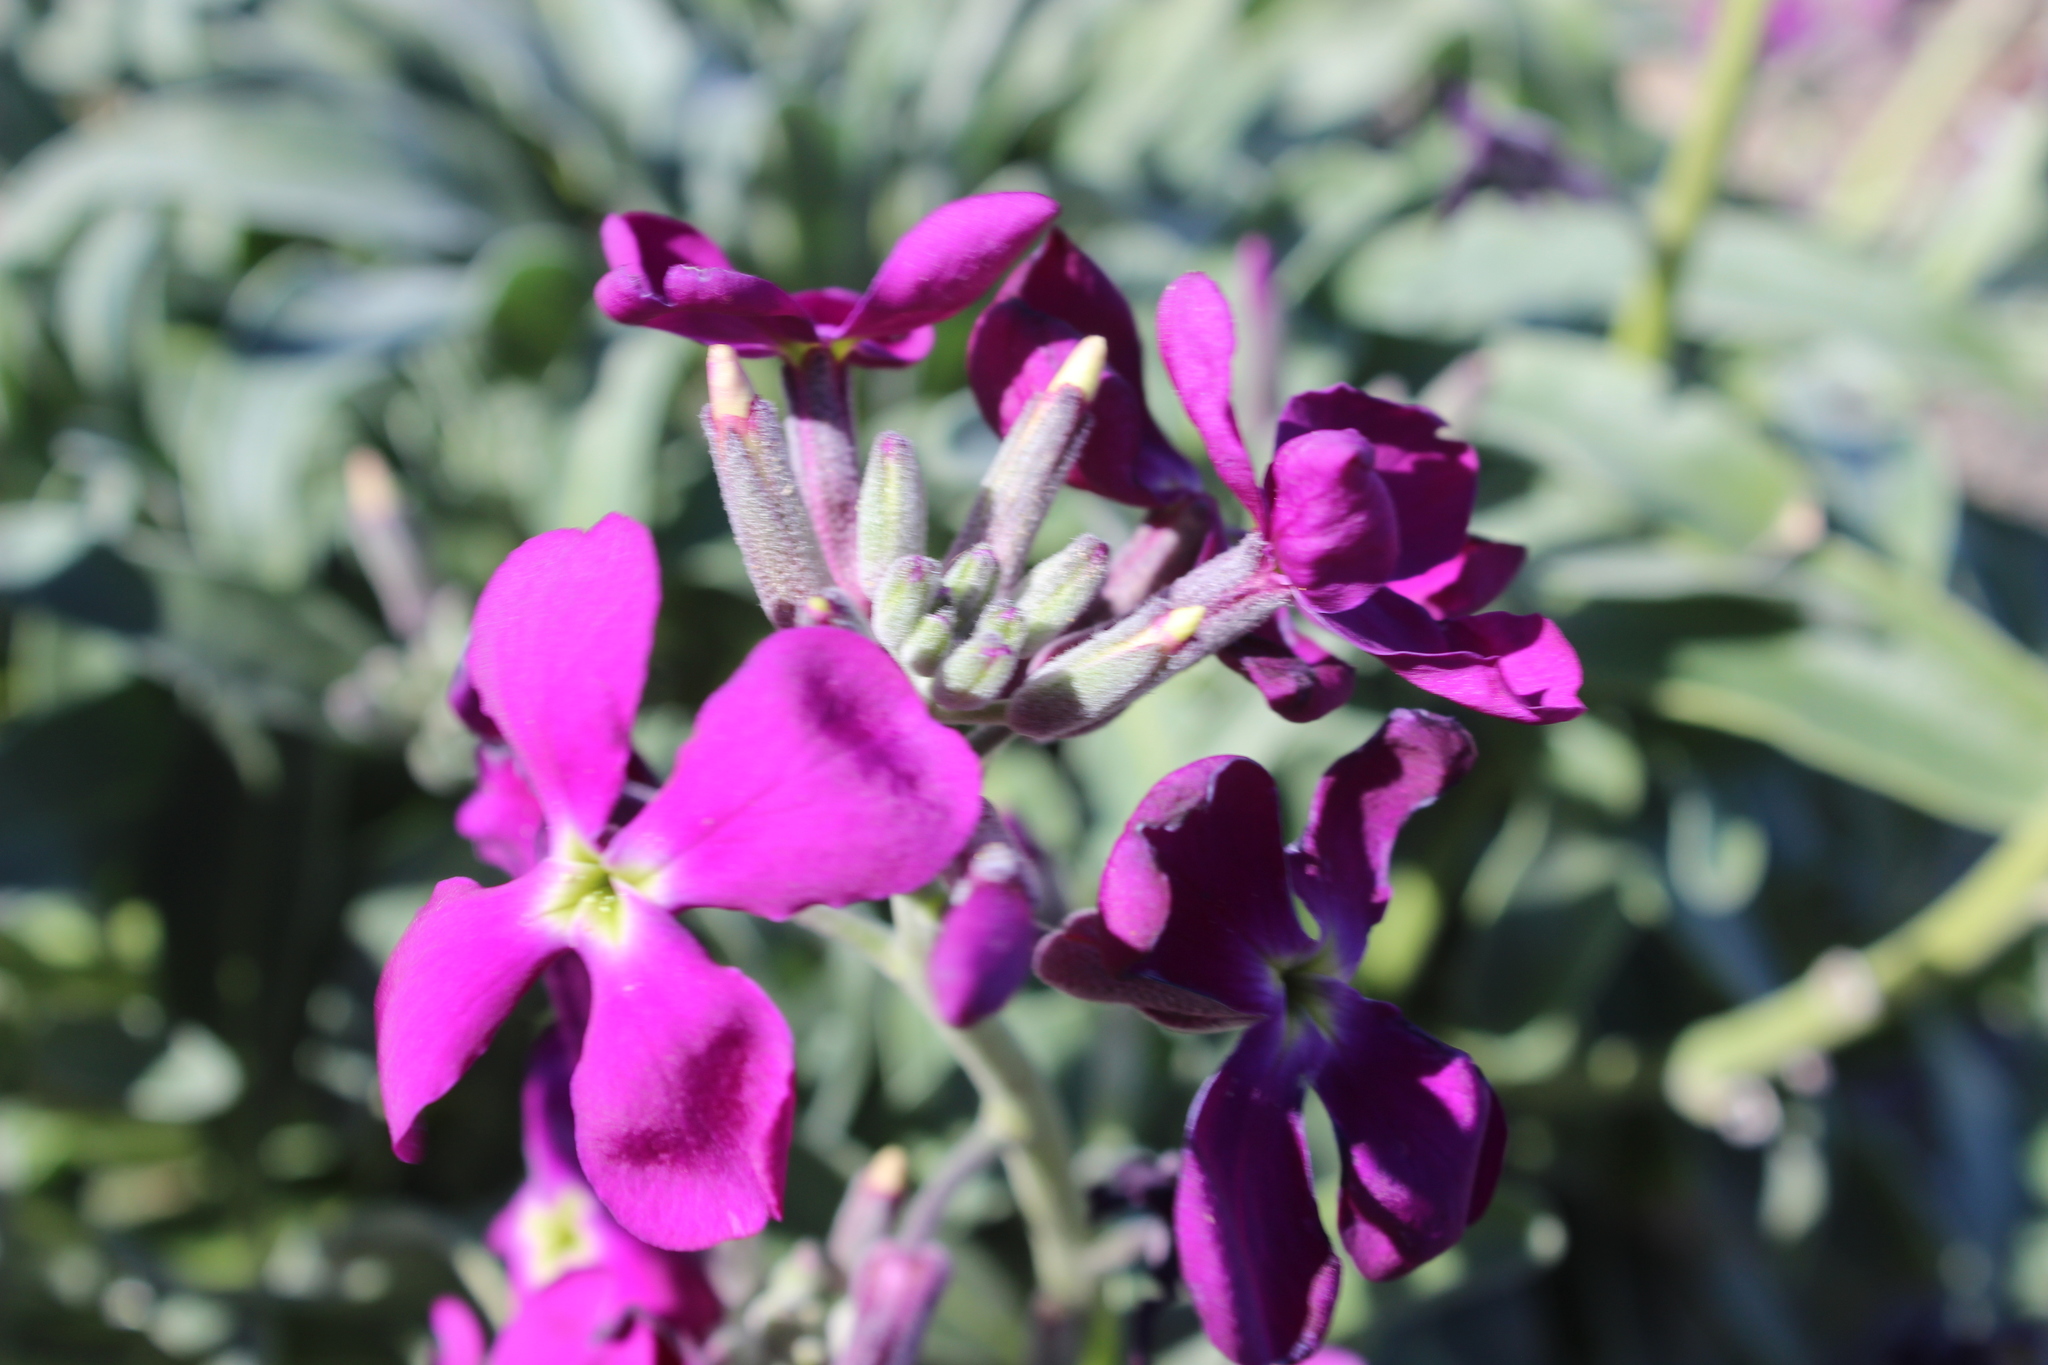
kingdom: Plantae
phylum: Tracheophyta
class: Magnoliopsida
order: Brassicales
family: Brassicaceae
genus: Matthiola
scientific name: Matthiola incana
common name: Hoary stock
